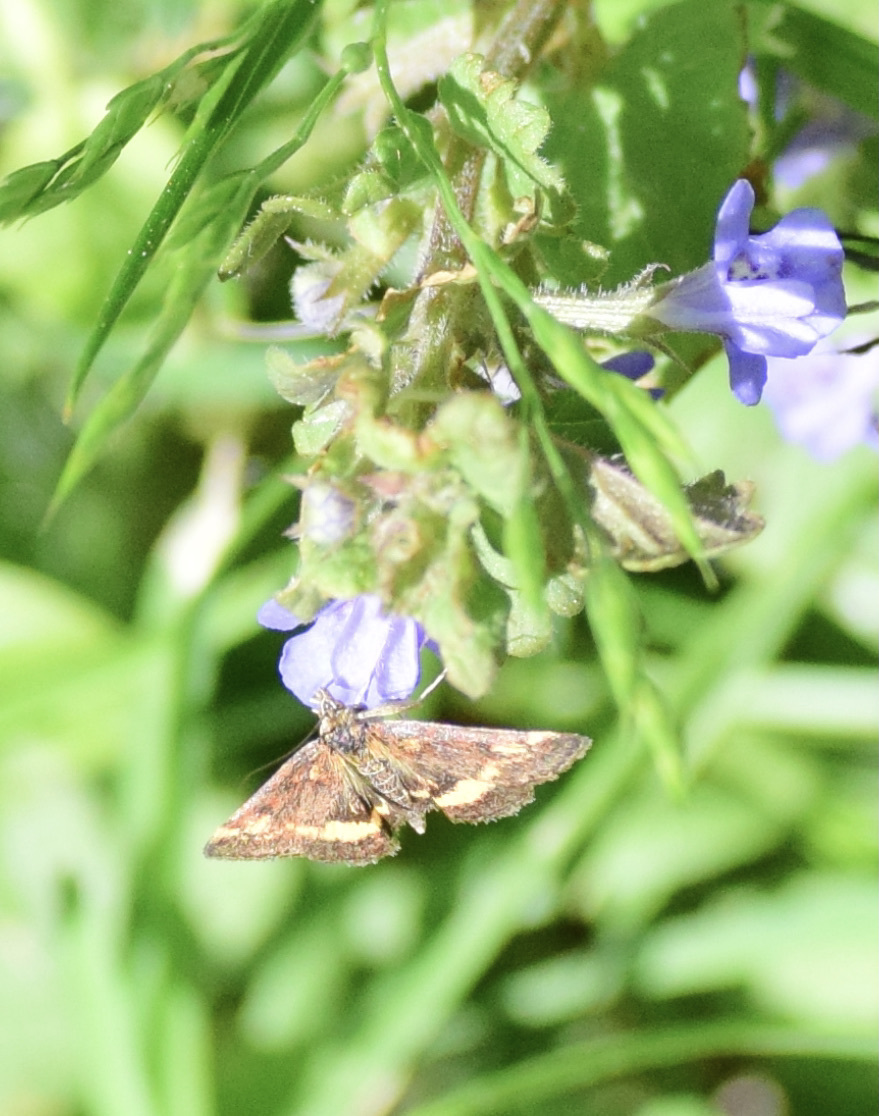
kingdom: Animalia
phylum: Arthropoda
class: Insecta
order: Lepidoptera
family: Crambidae
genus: Pyrausta
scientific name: Pyrausta orphisalis
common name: Orange mint moth
